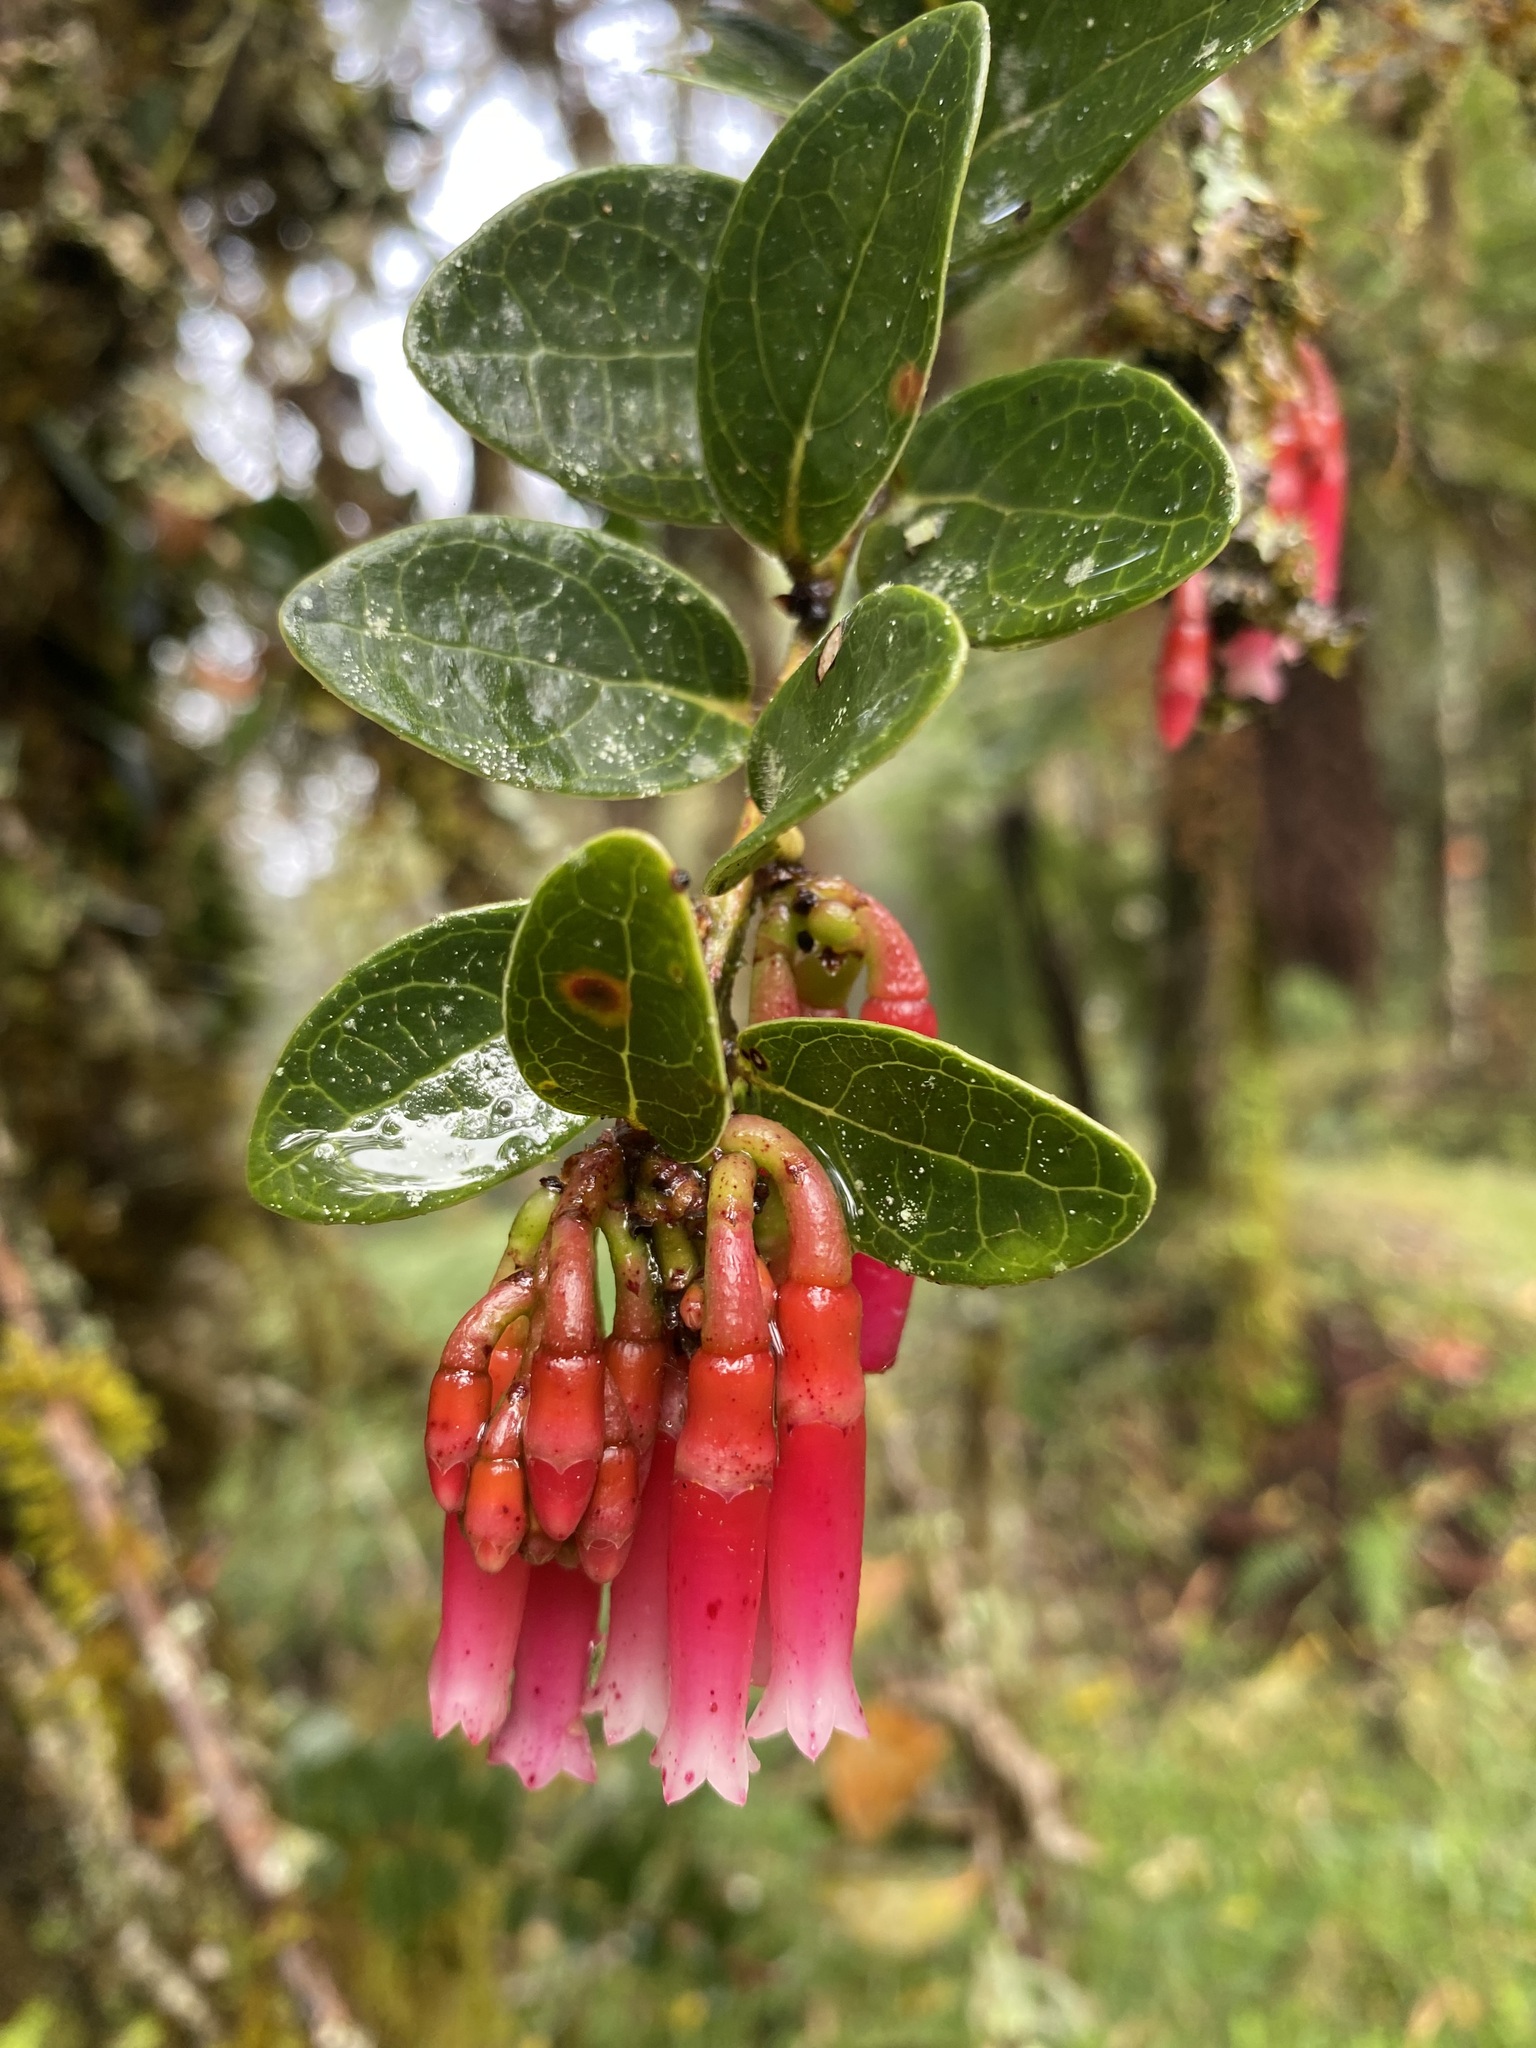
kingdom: Plantae
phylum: Tracheophyta
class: Magnoliopsida
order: Ericales
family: Ericaceae
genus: Macleania
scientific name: Macleania rupestris
